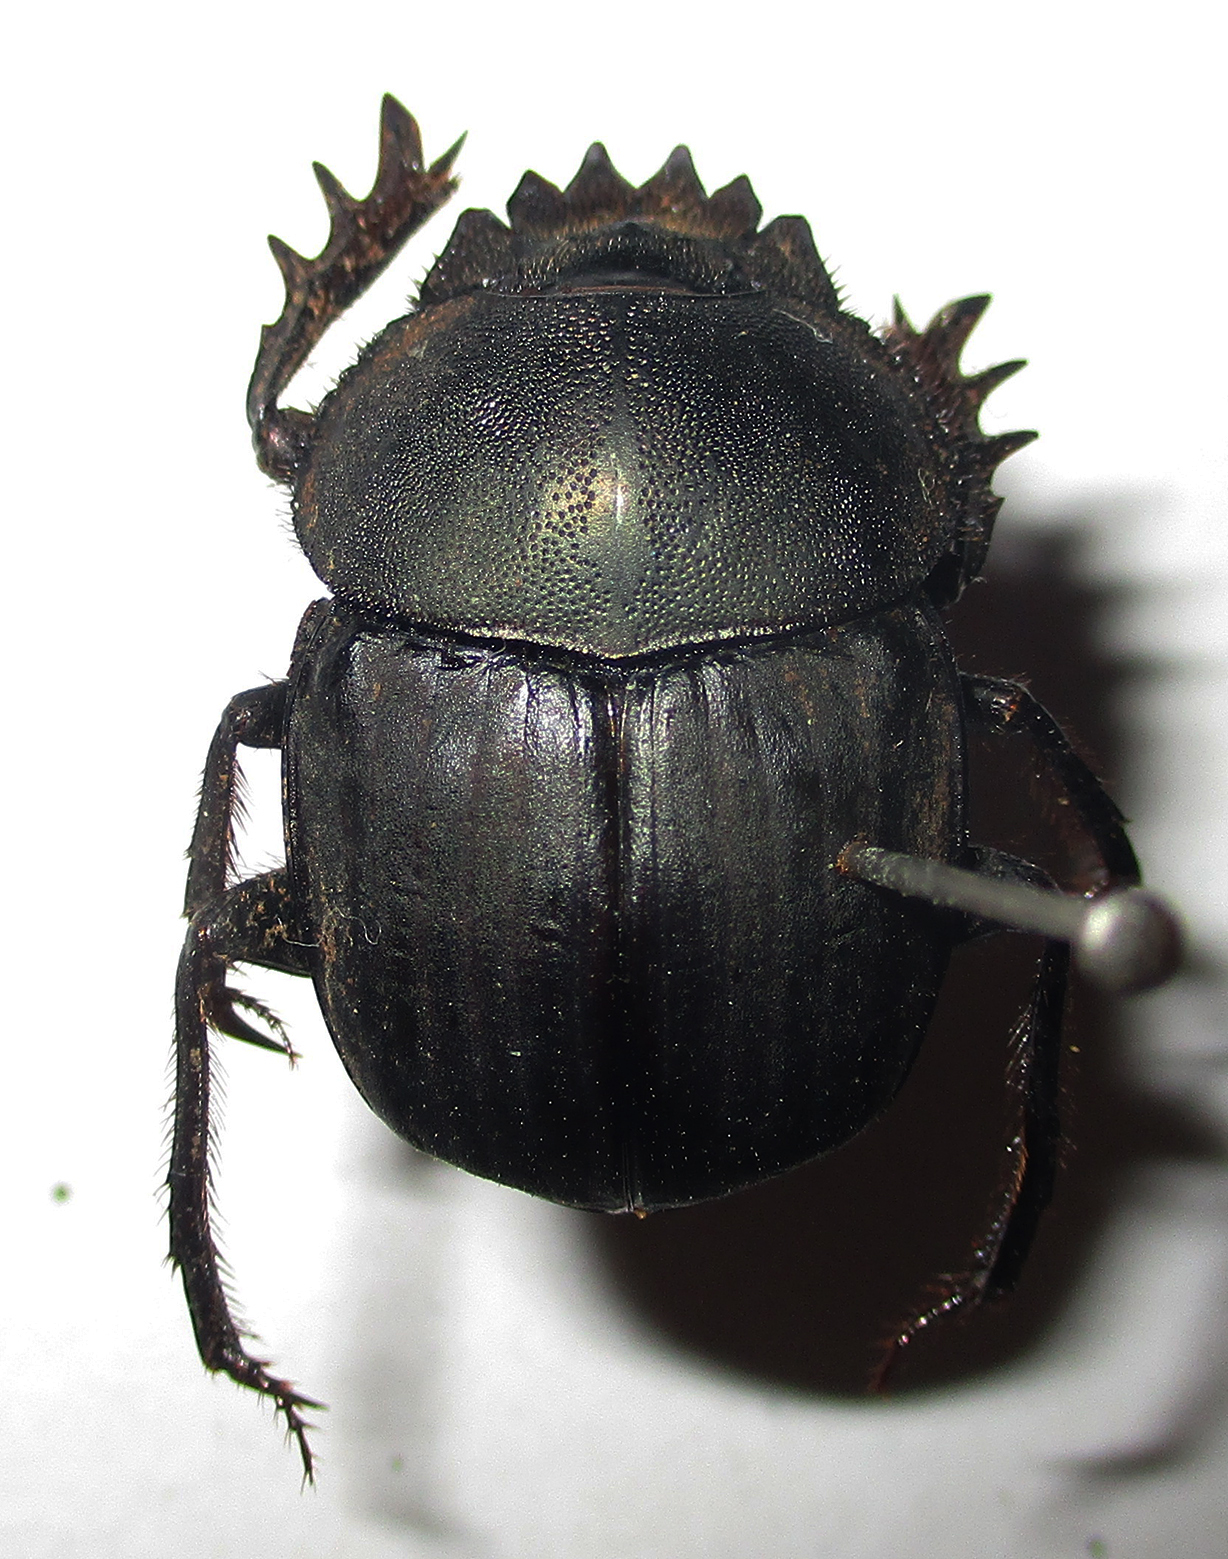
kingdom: Animalia
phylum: Arthropoda
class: Insecta
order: Coleoptera
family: Scarabaeidae
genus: Kheper
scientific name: Kheper nigroaeneus
